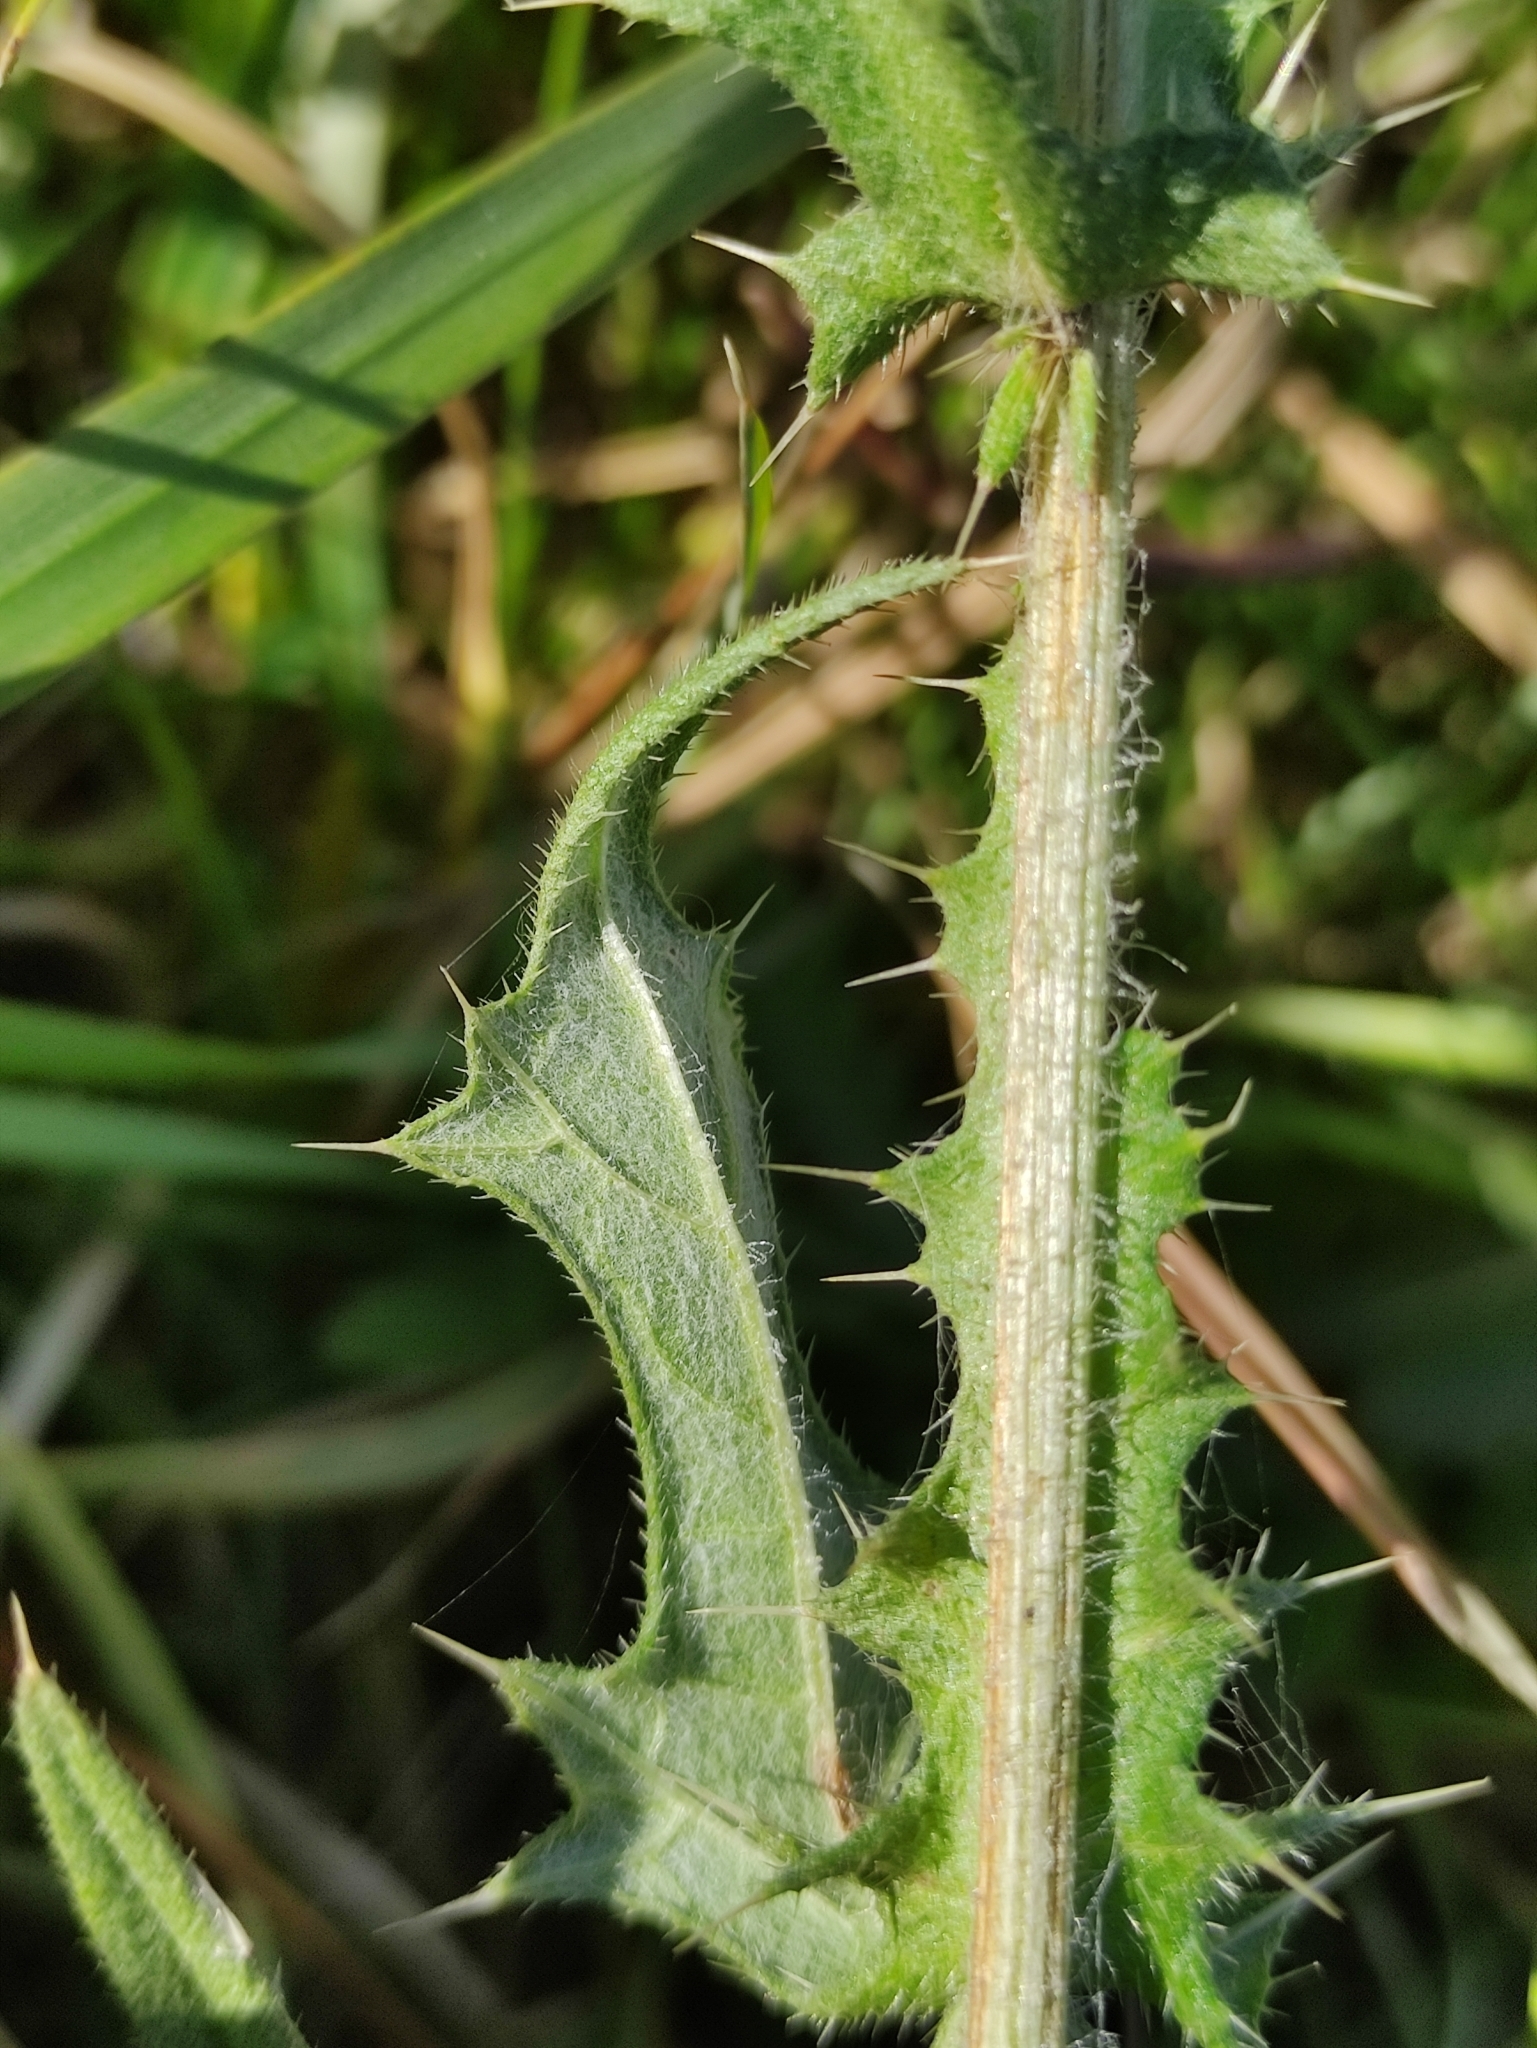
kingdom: Plantae
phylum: Tracheophyta
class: Magnoliopsida
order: Asterales
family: Asteraceae
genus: Cirsium
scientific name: Cirsium vulgare
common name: Bull thistle
